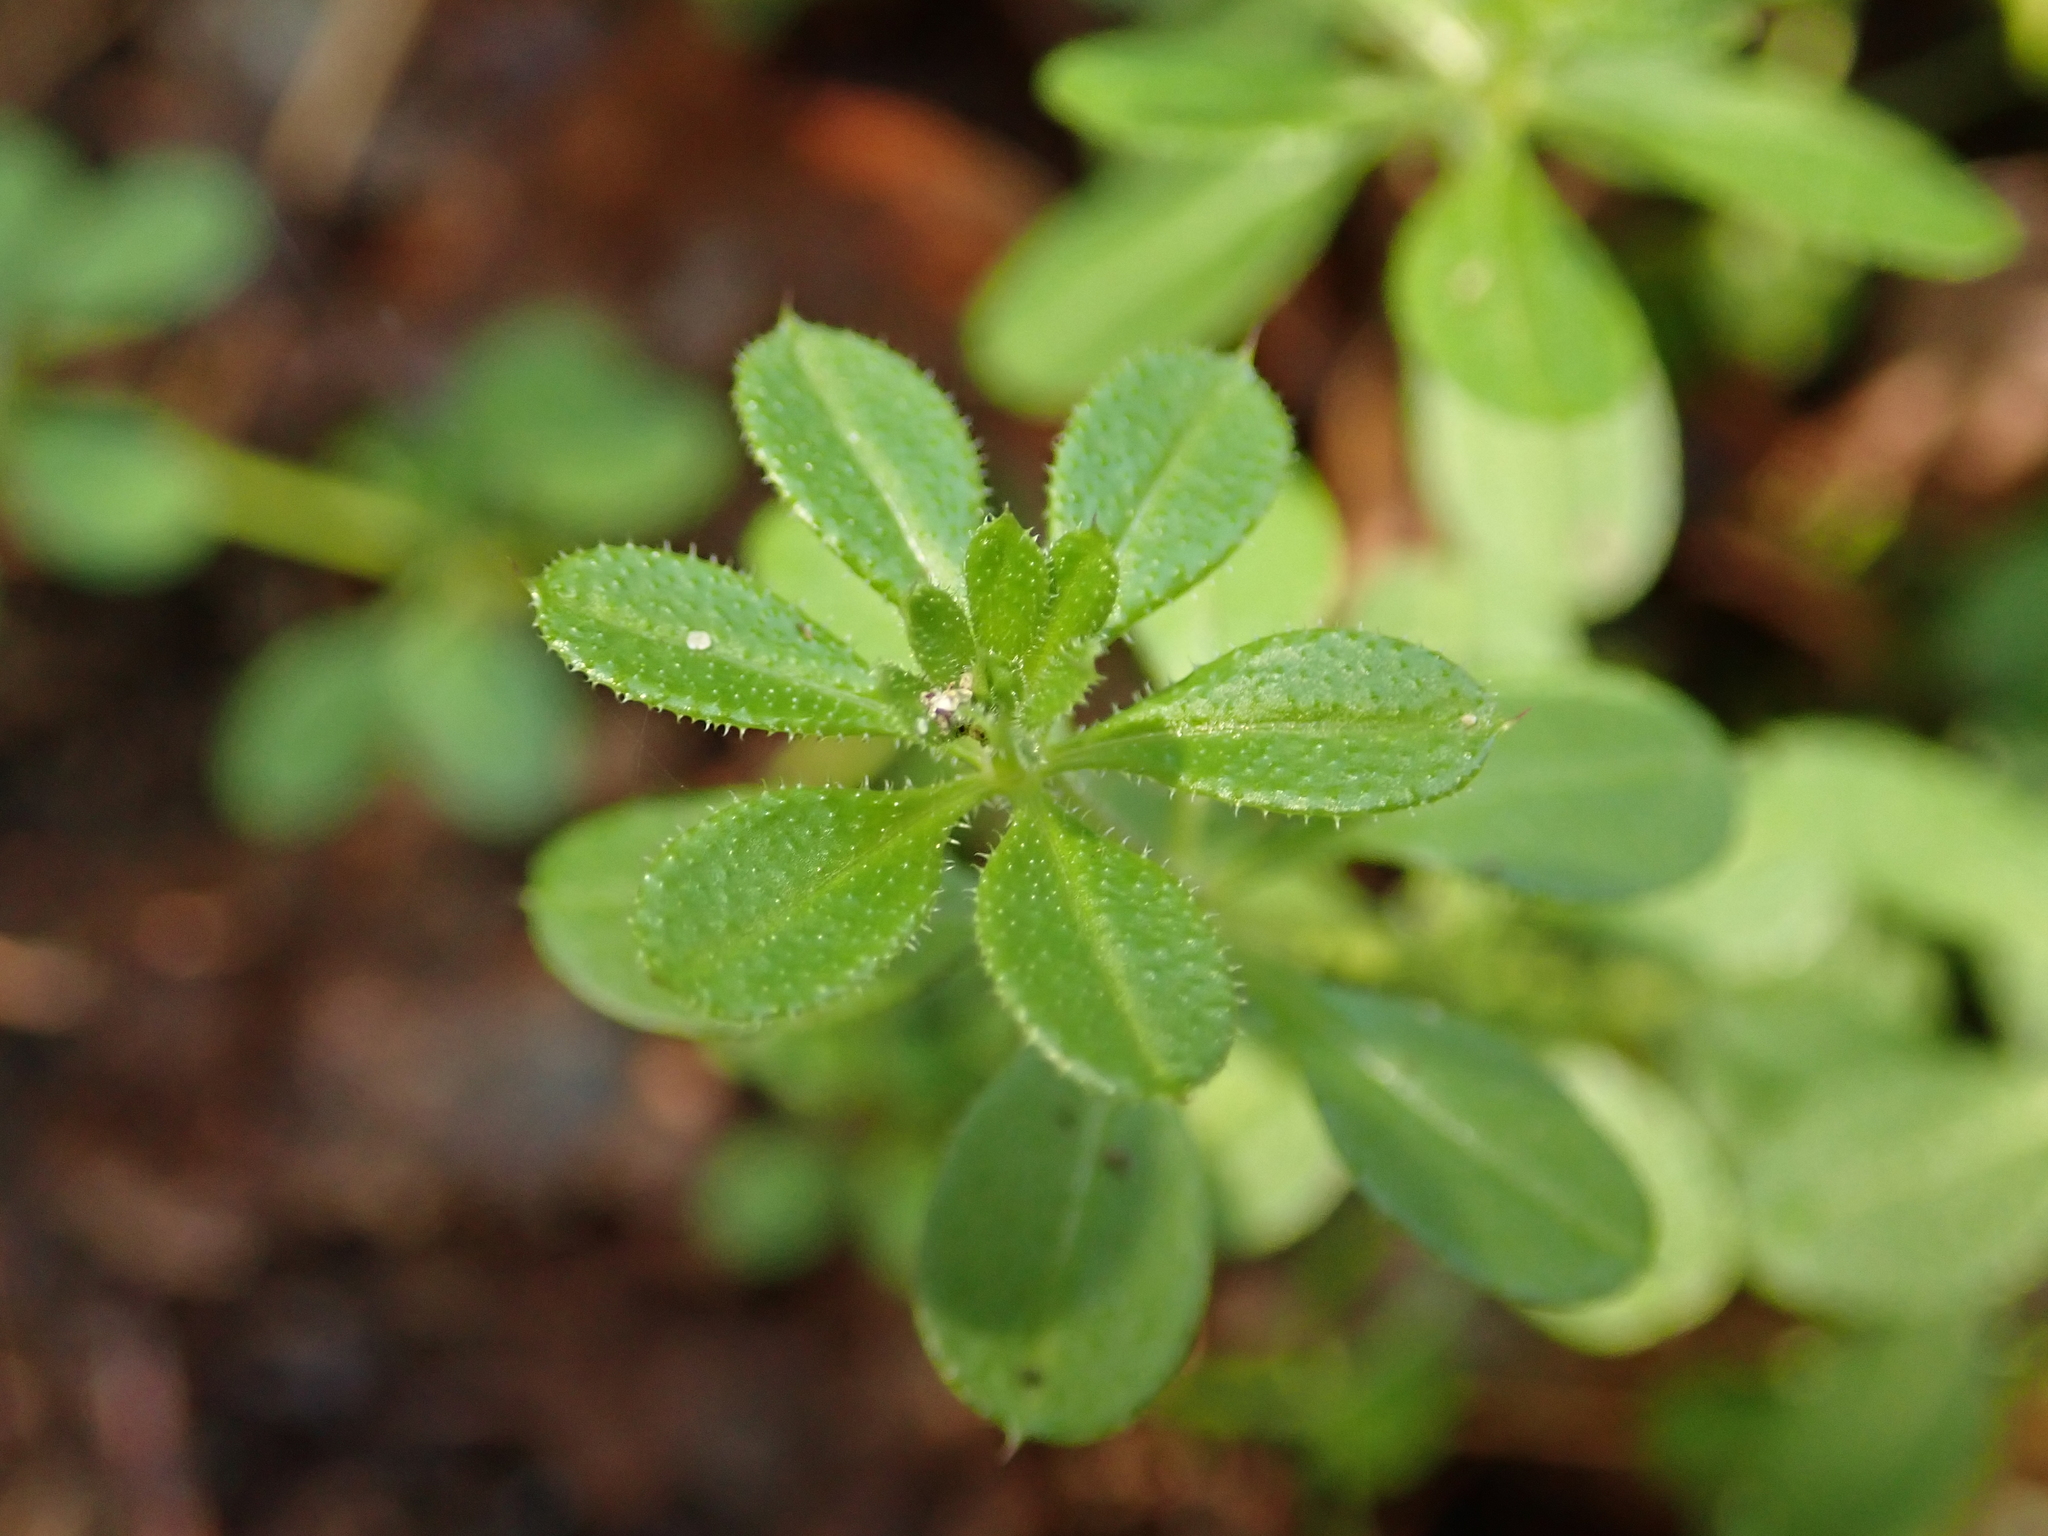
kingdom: Plantae
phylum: Tracheophyta
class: Magnoliopsida
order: Gentianales
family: Rubiaceae
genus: Galium
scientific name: Galium aparine
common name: Cleavers
